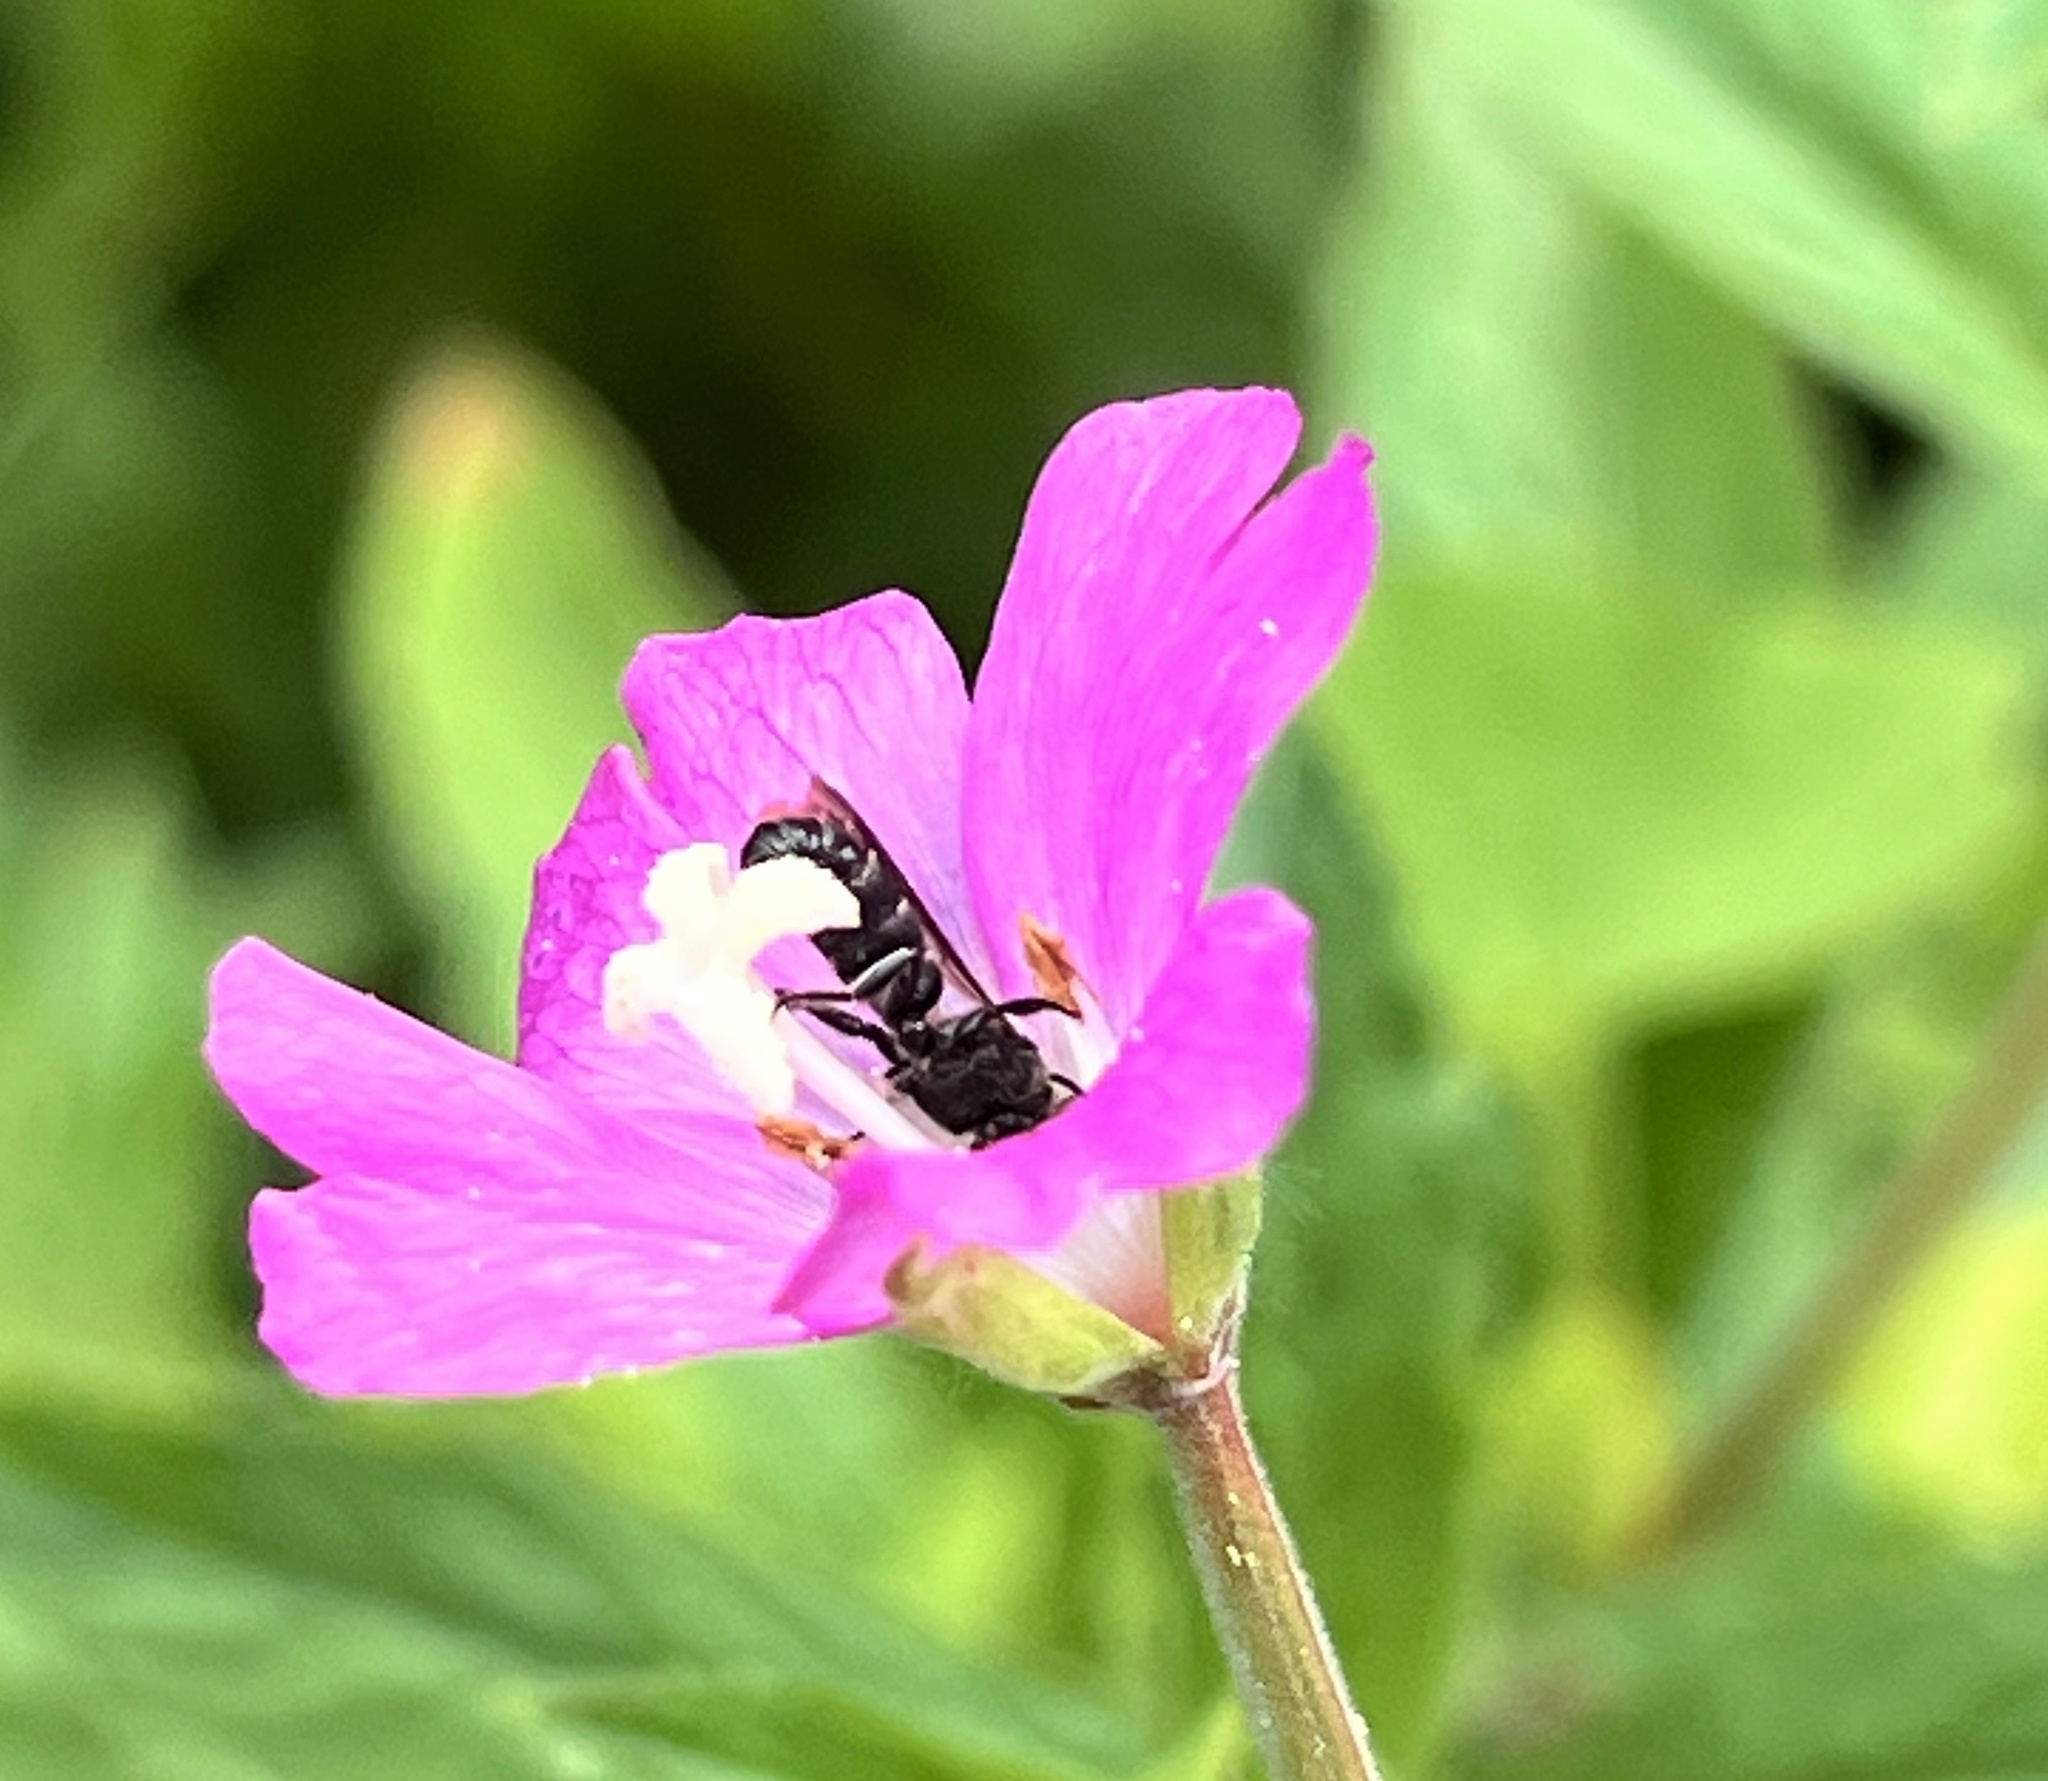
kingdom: Plantae
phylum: Tracheophyta
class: Magnoliopsida
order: Myrtales
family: Onagraceae
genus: Epilobium
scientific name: Epilobium hirsutum
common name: Great willowherb
